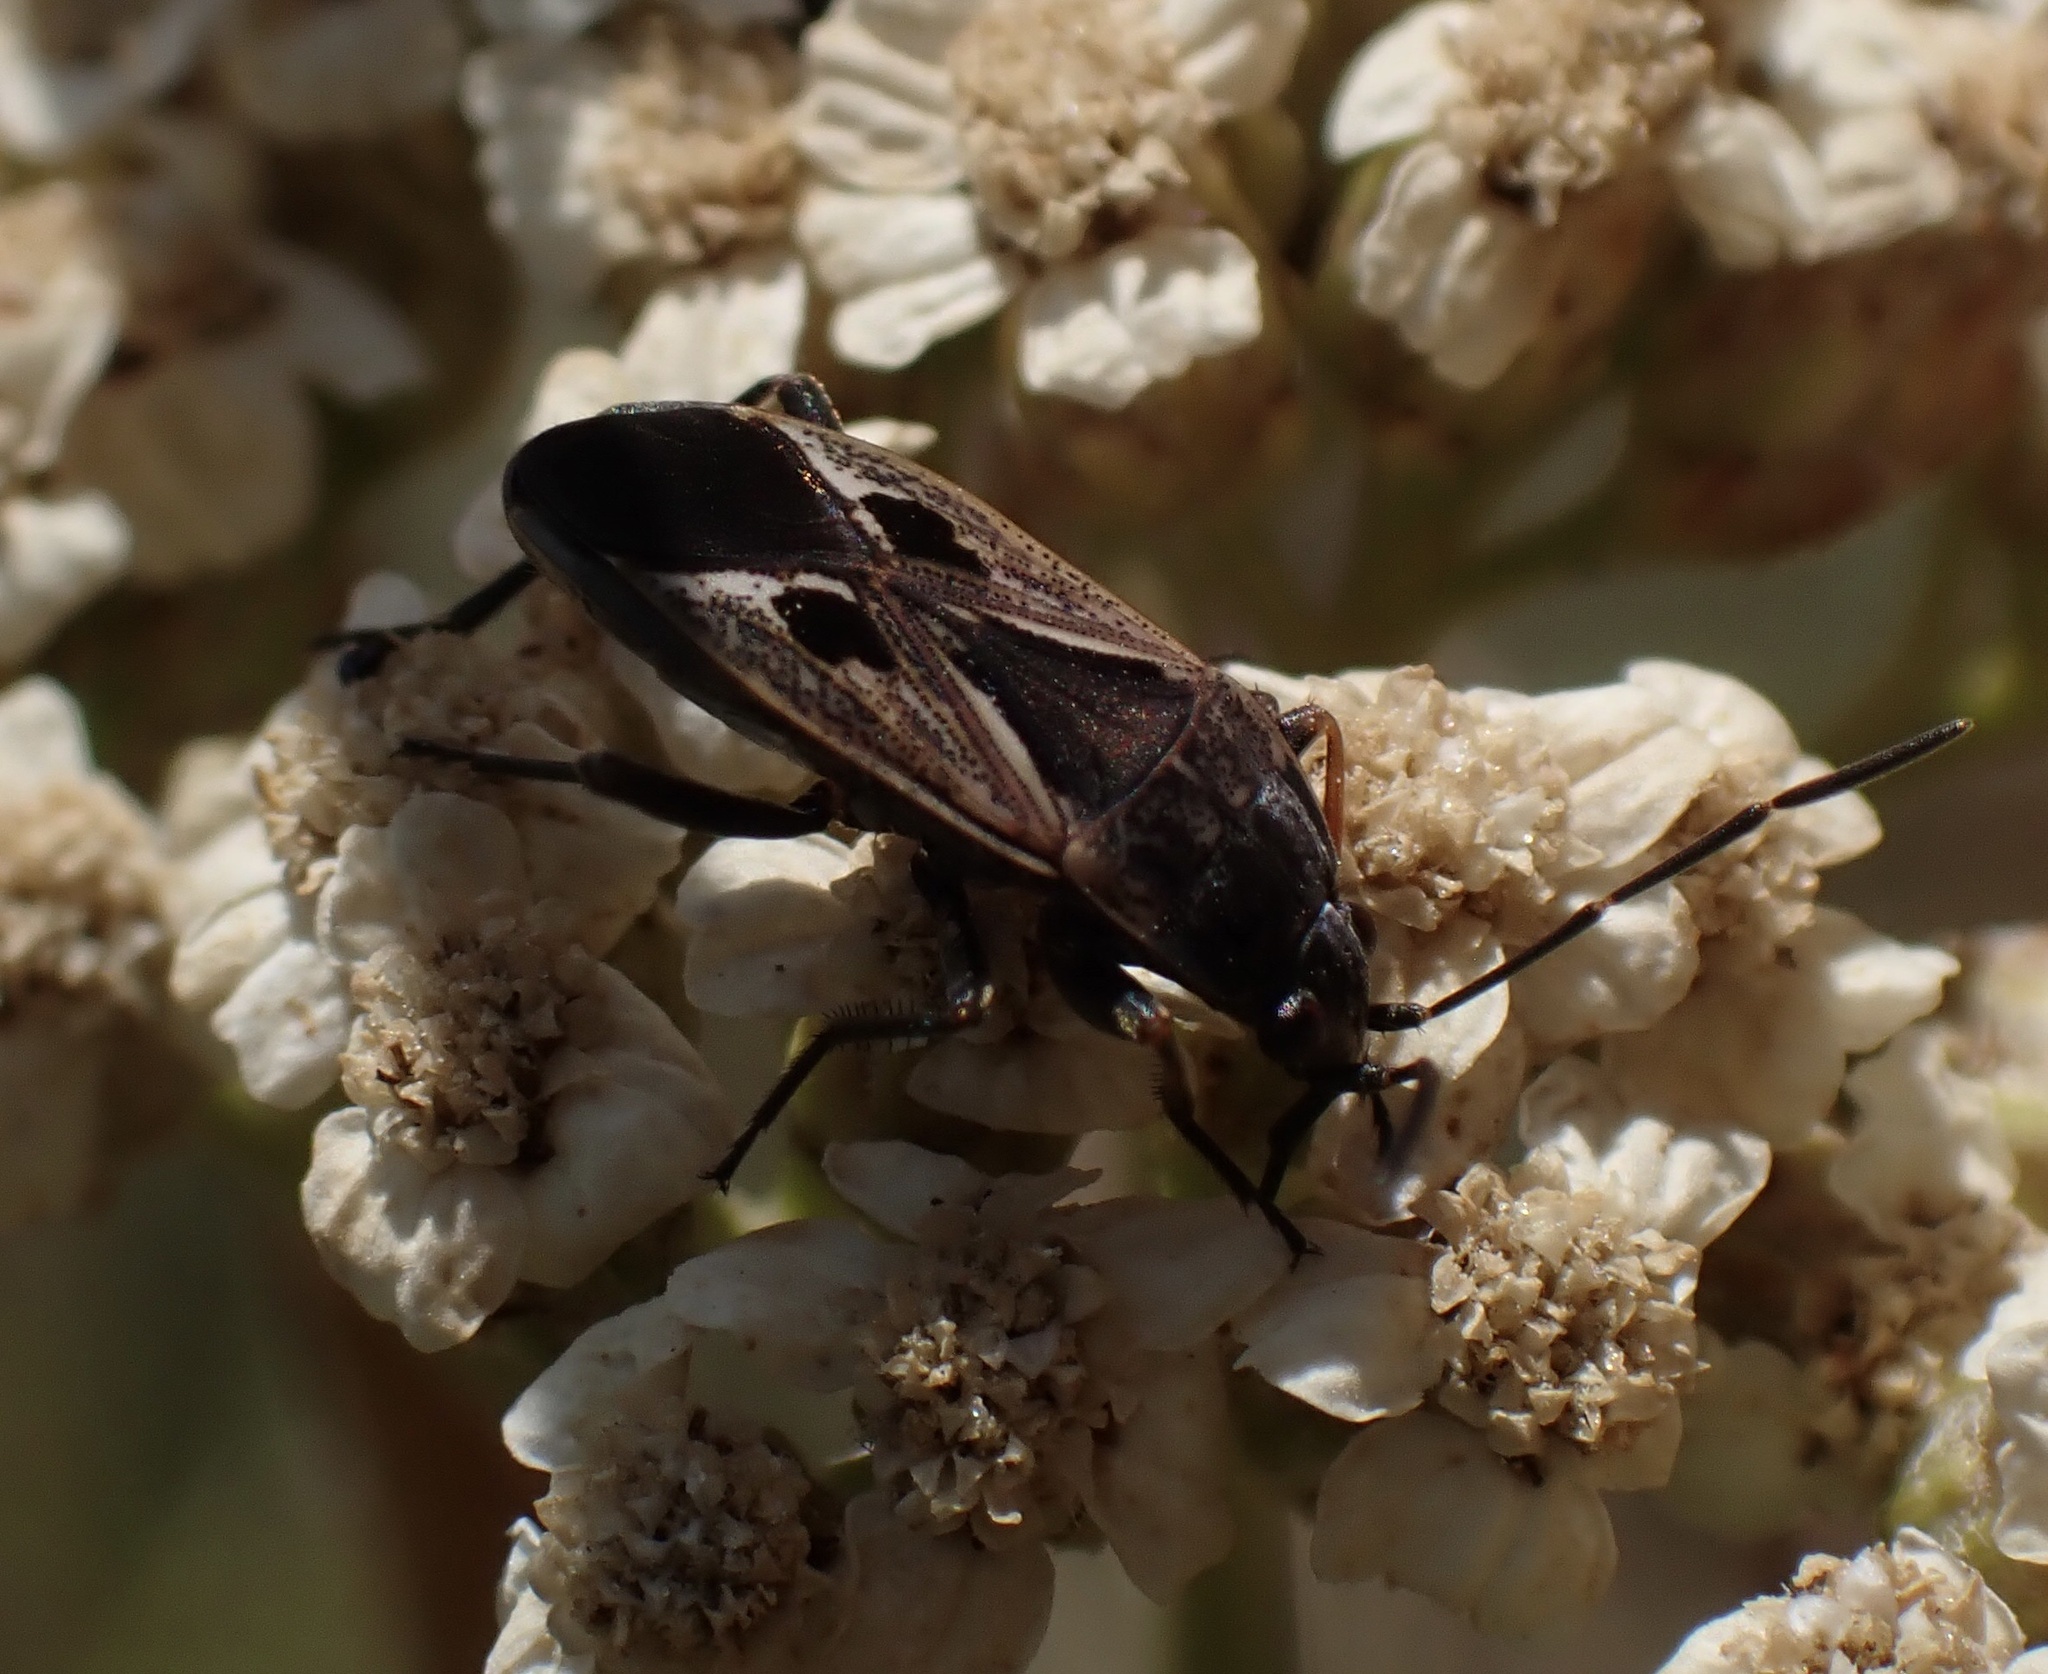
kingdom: Animalia
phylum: Arthropoda
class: Insecta
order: Hemiptera
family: Rhyparochromidae
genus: Rhyparochromus
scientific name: Rhyparochromus pini
